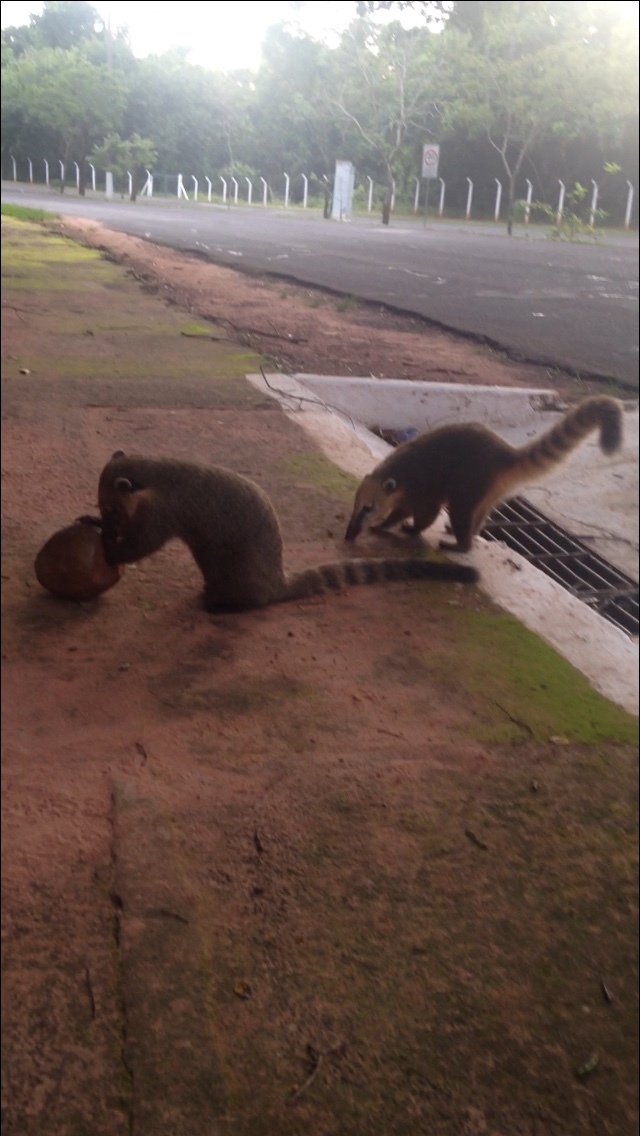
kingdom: Animalia
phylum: Chordata
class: Mammalia
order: Carnivora
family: Procyonidae
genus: Nasua
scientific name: Nasua nasua
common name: South american coati
